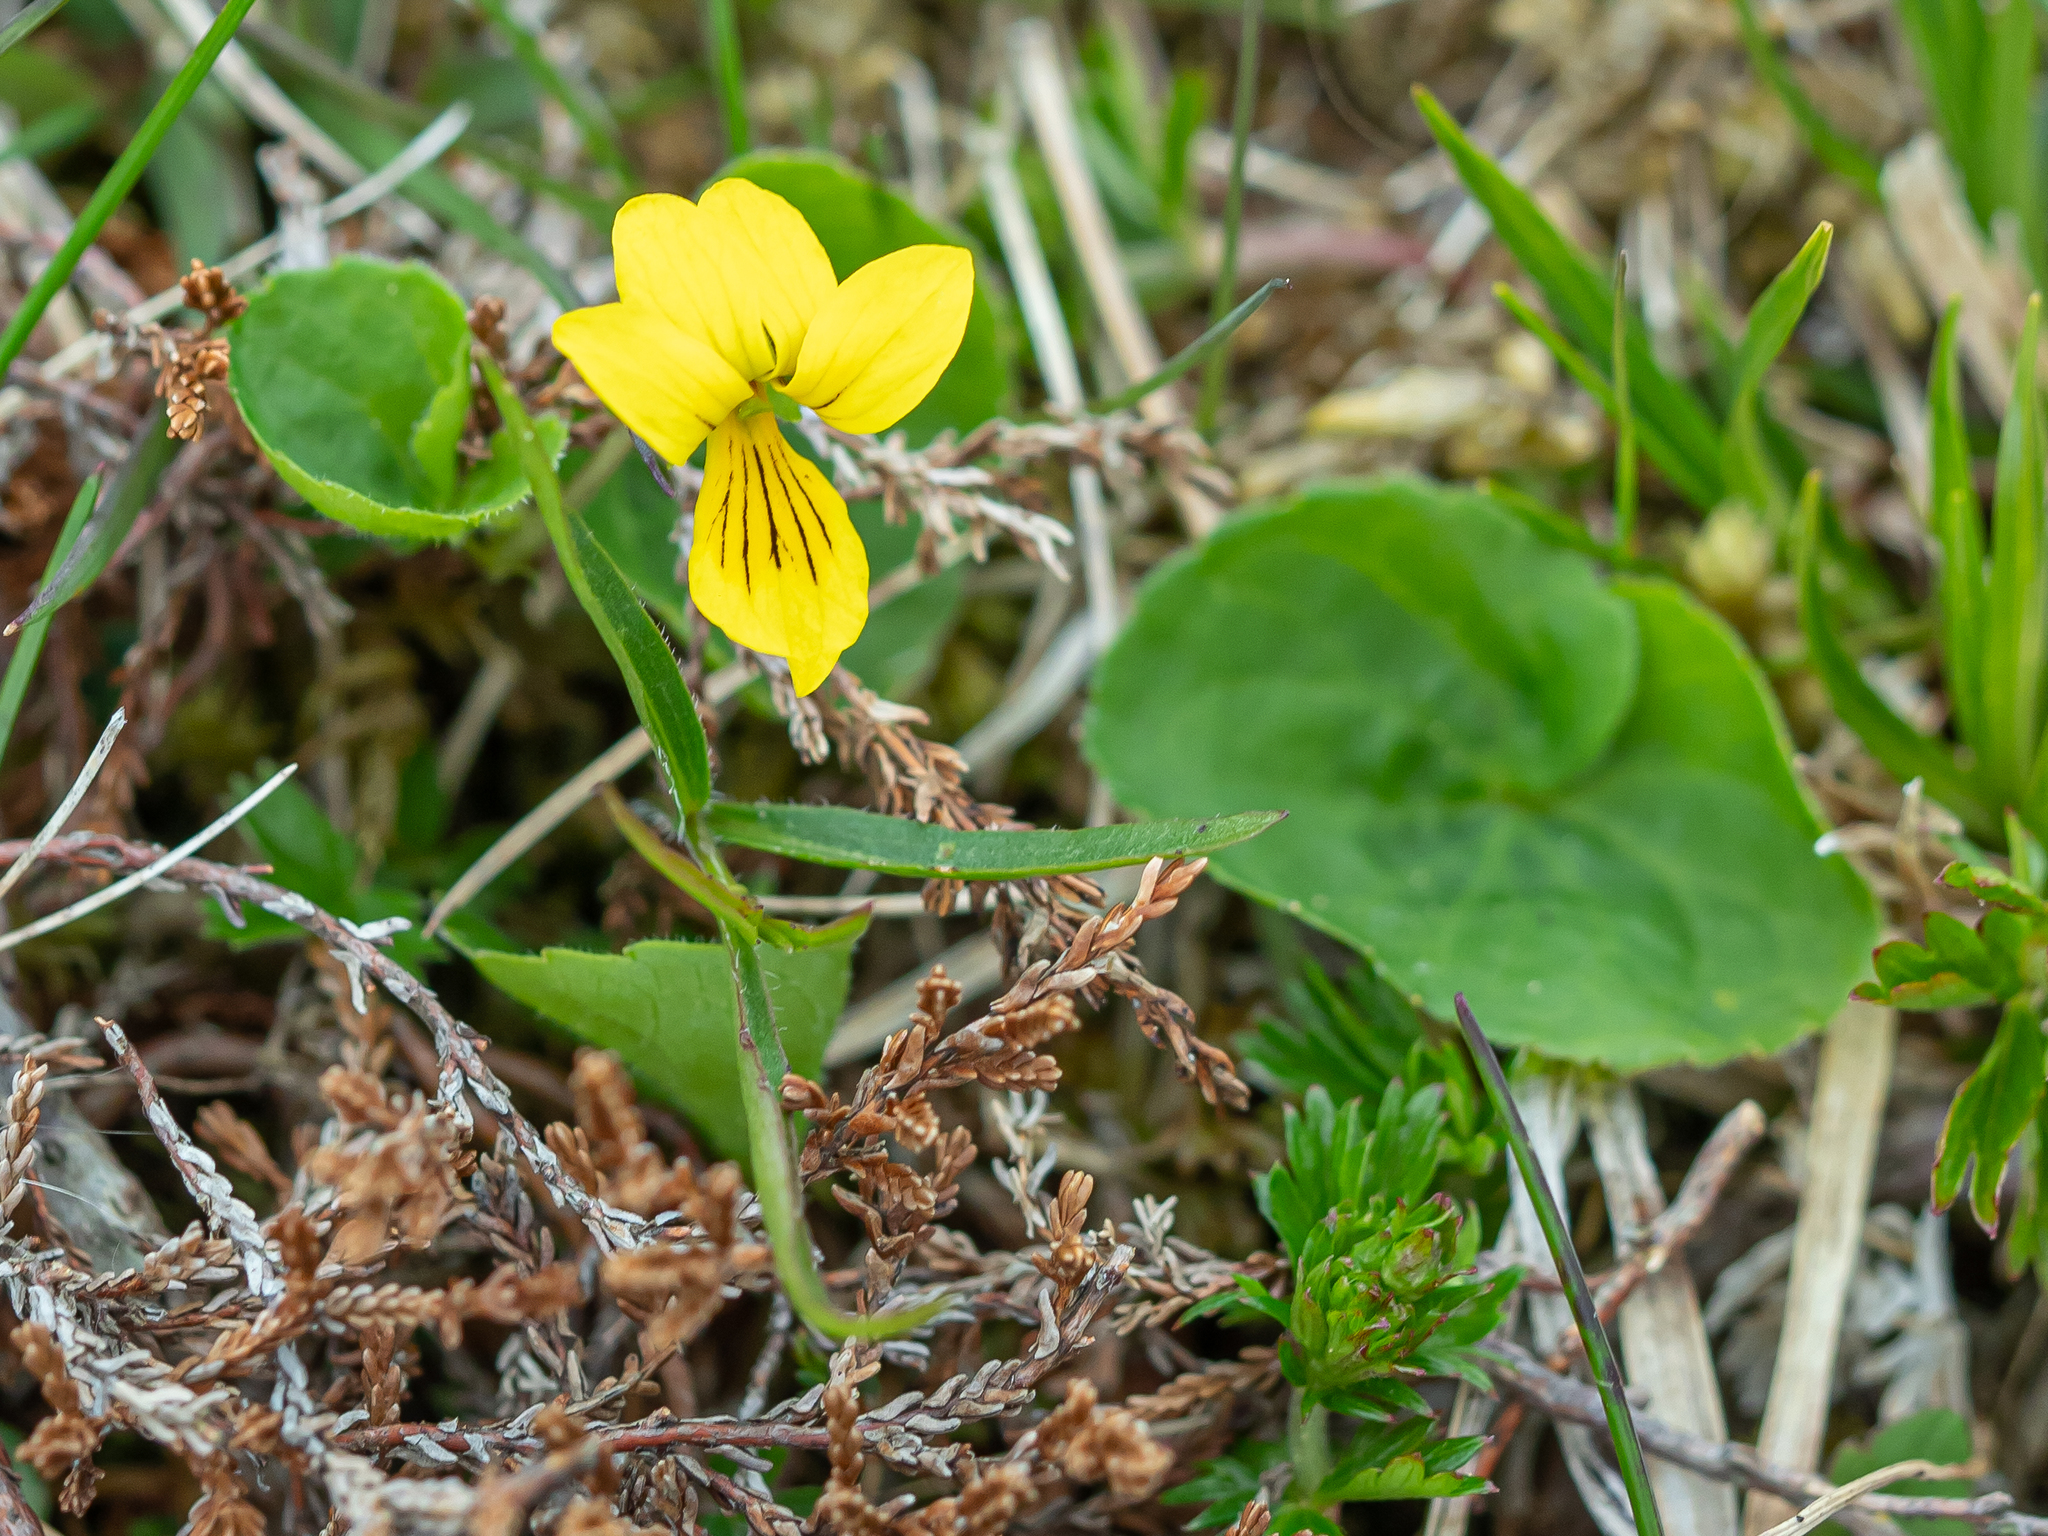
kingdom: Plantae
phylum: Tracheophyta
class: Magnoliopsida
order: Malpighiales
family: Violaceae
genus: Viola
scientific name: Viola biflora
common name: Alpine yellow violet
